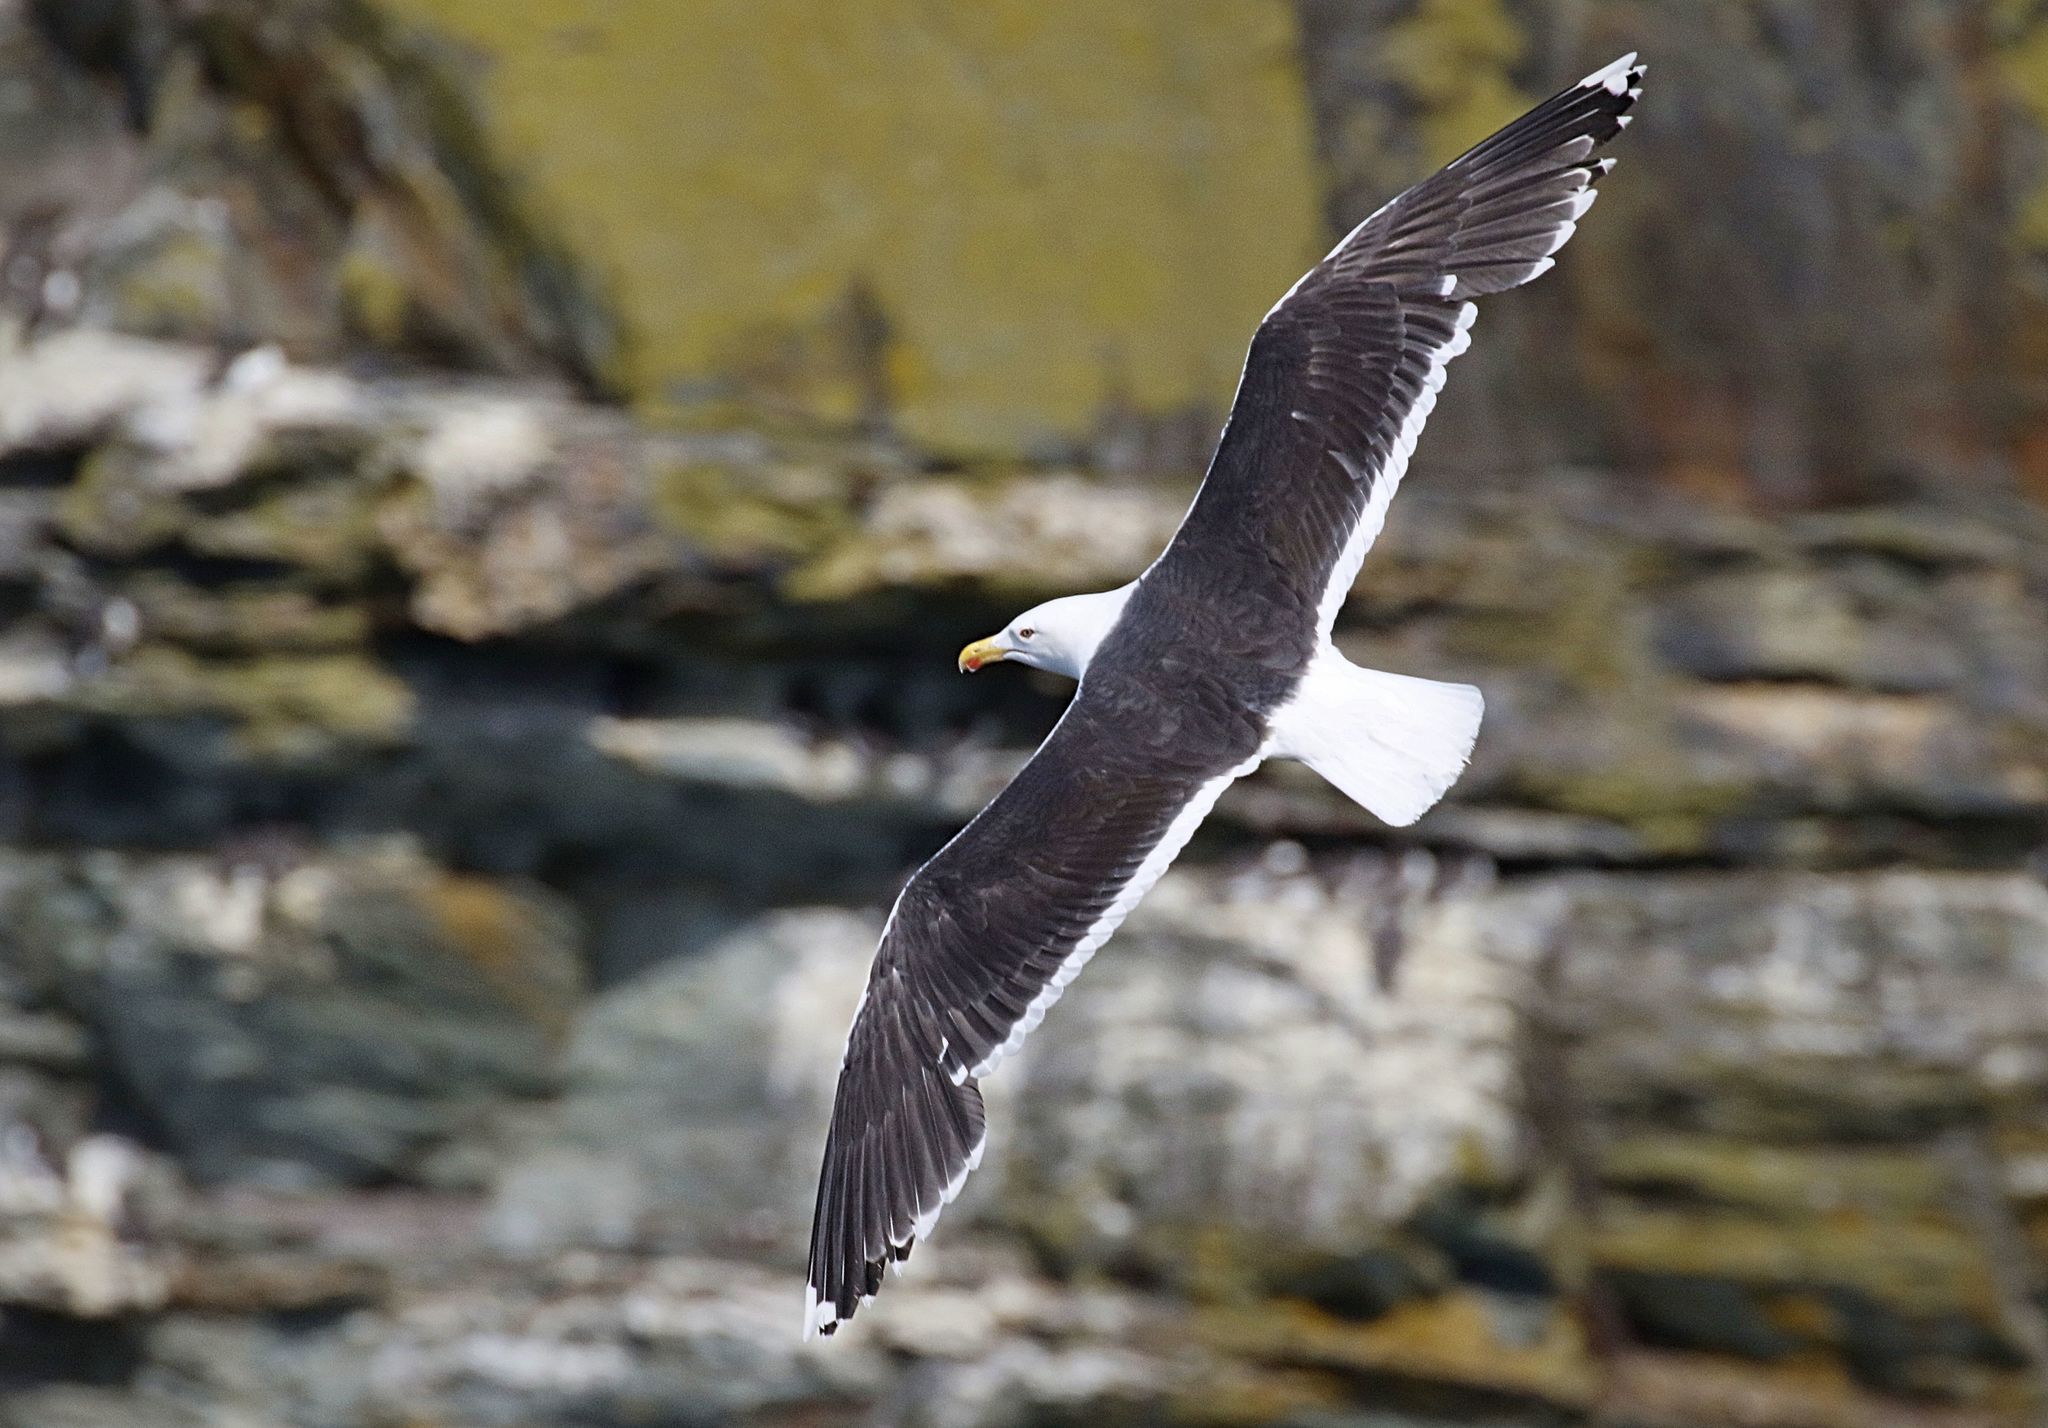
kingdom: Animalia
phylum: Chordata
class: Aves
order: Charadriiformes
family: Laridae
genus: Larus
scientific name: Larus marinus
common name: Great black-backed gull
